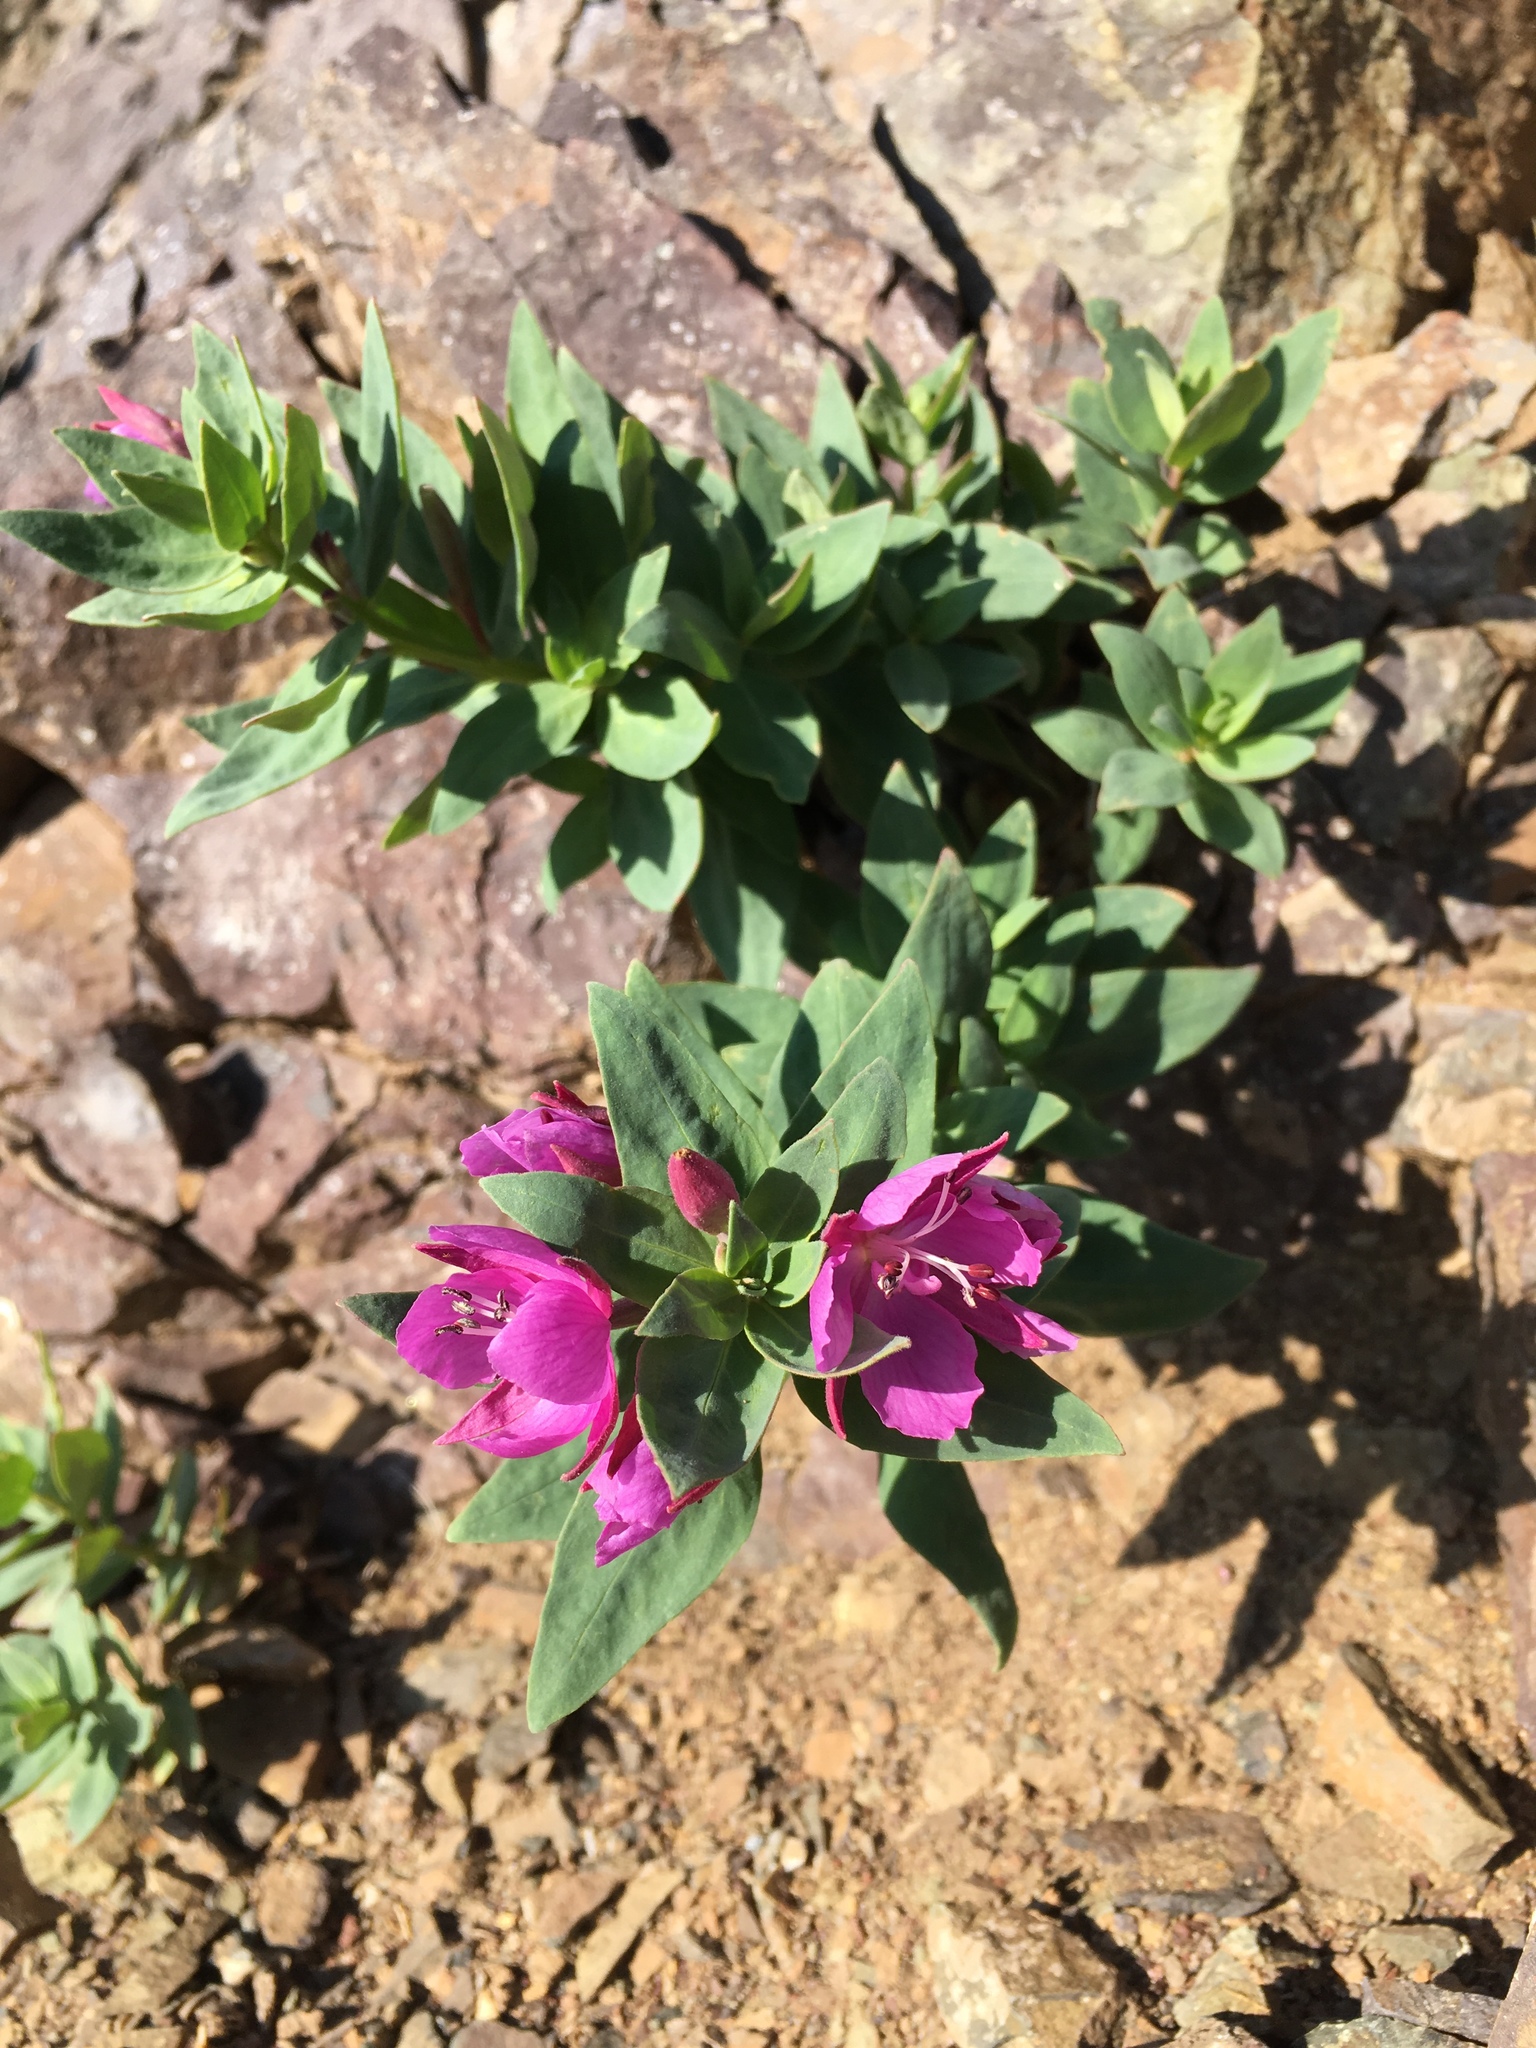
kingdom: Plantae
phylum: Tracheophyta
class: Magnoliopsida
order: Myrtales
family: Onagraceae
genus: Chamaenerion
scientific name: Chamaenerion latifolium
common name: Dwarf fireweed
